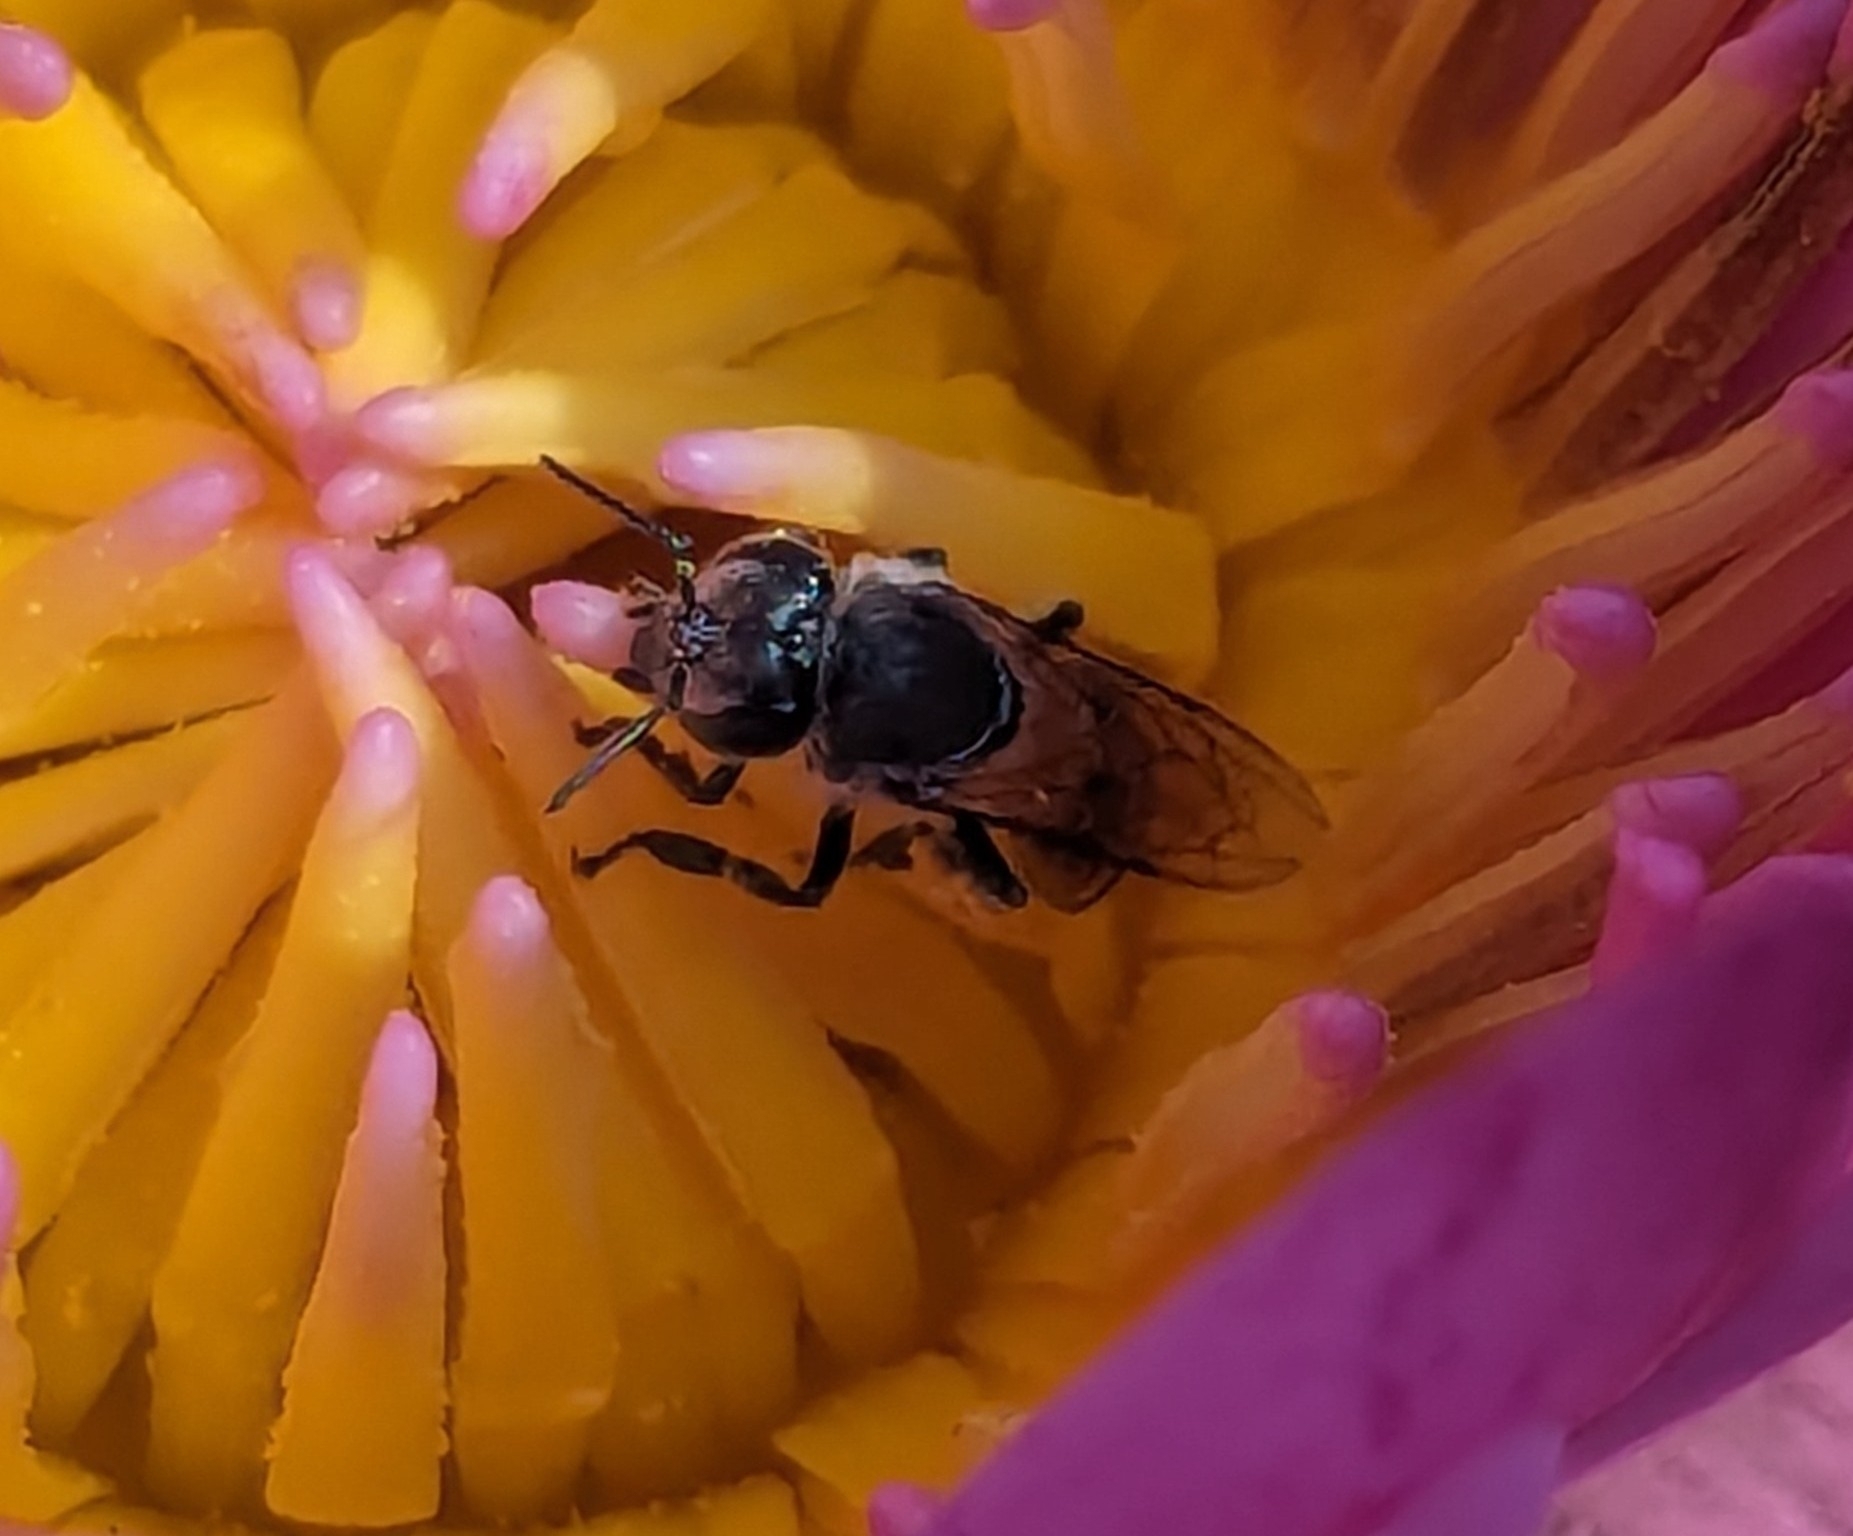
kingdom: Animalia
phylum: Arthropoda
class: Insecta
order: Hymenoptera
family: Apidae
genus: Apis
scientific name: Apis florea
